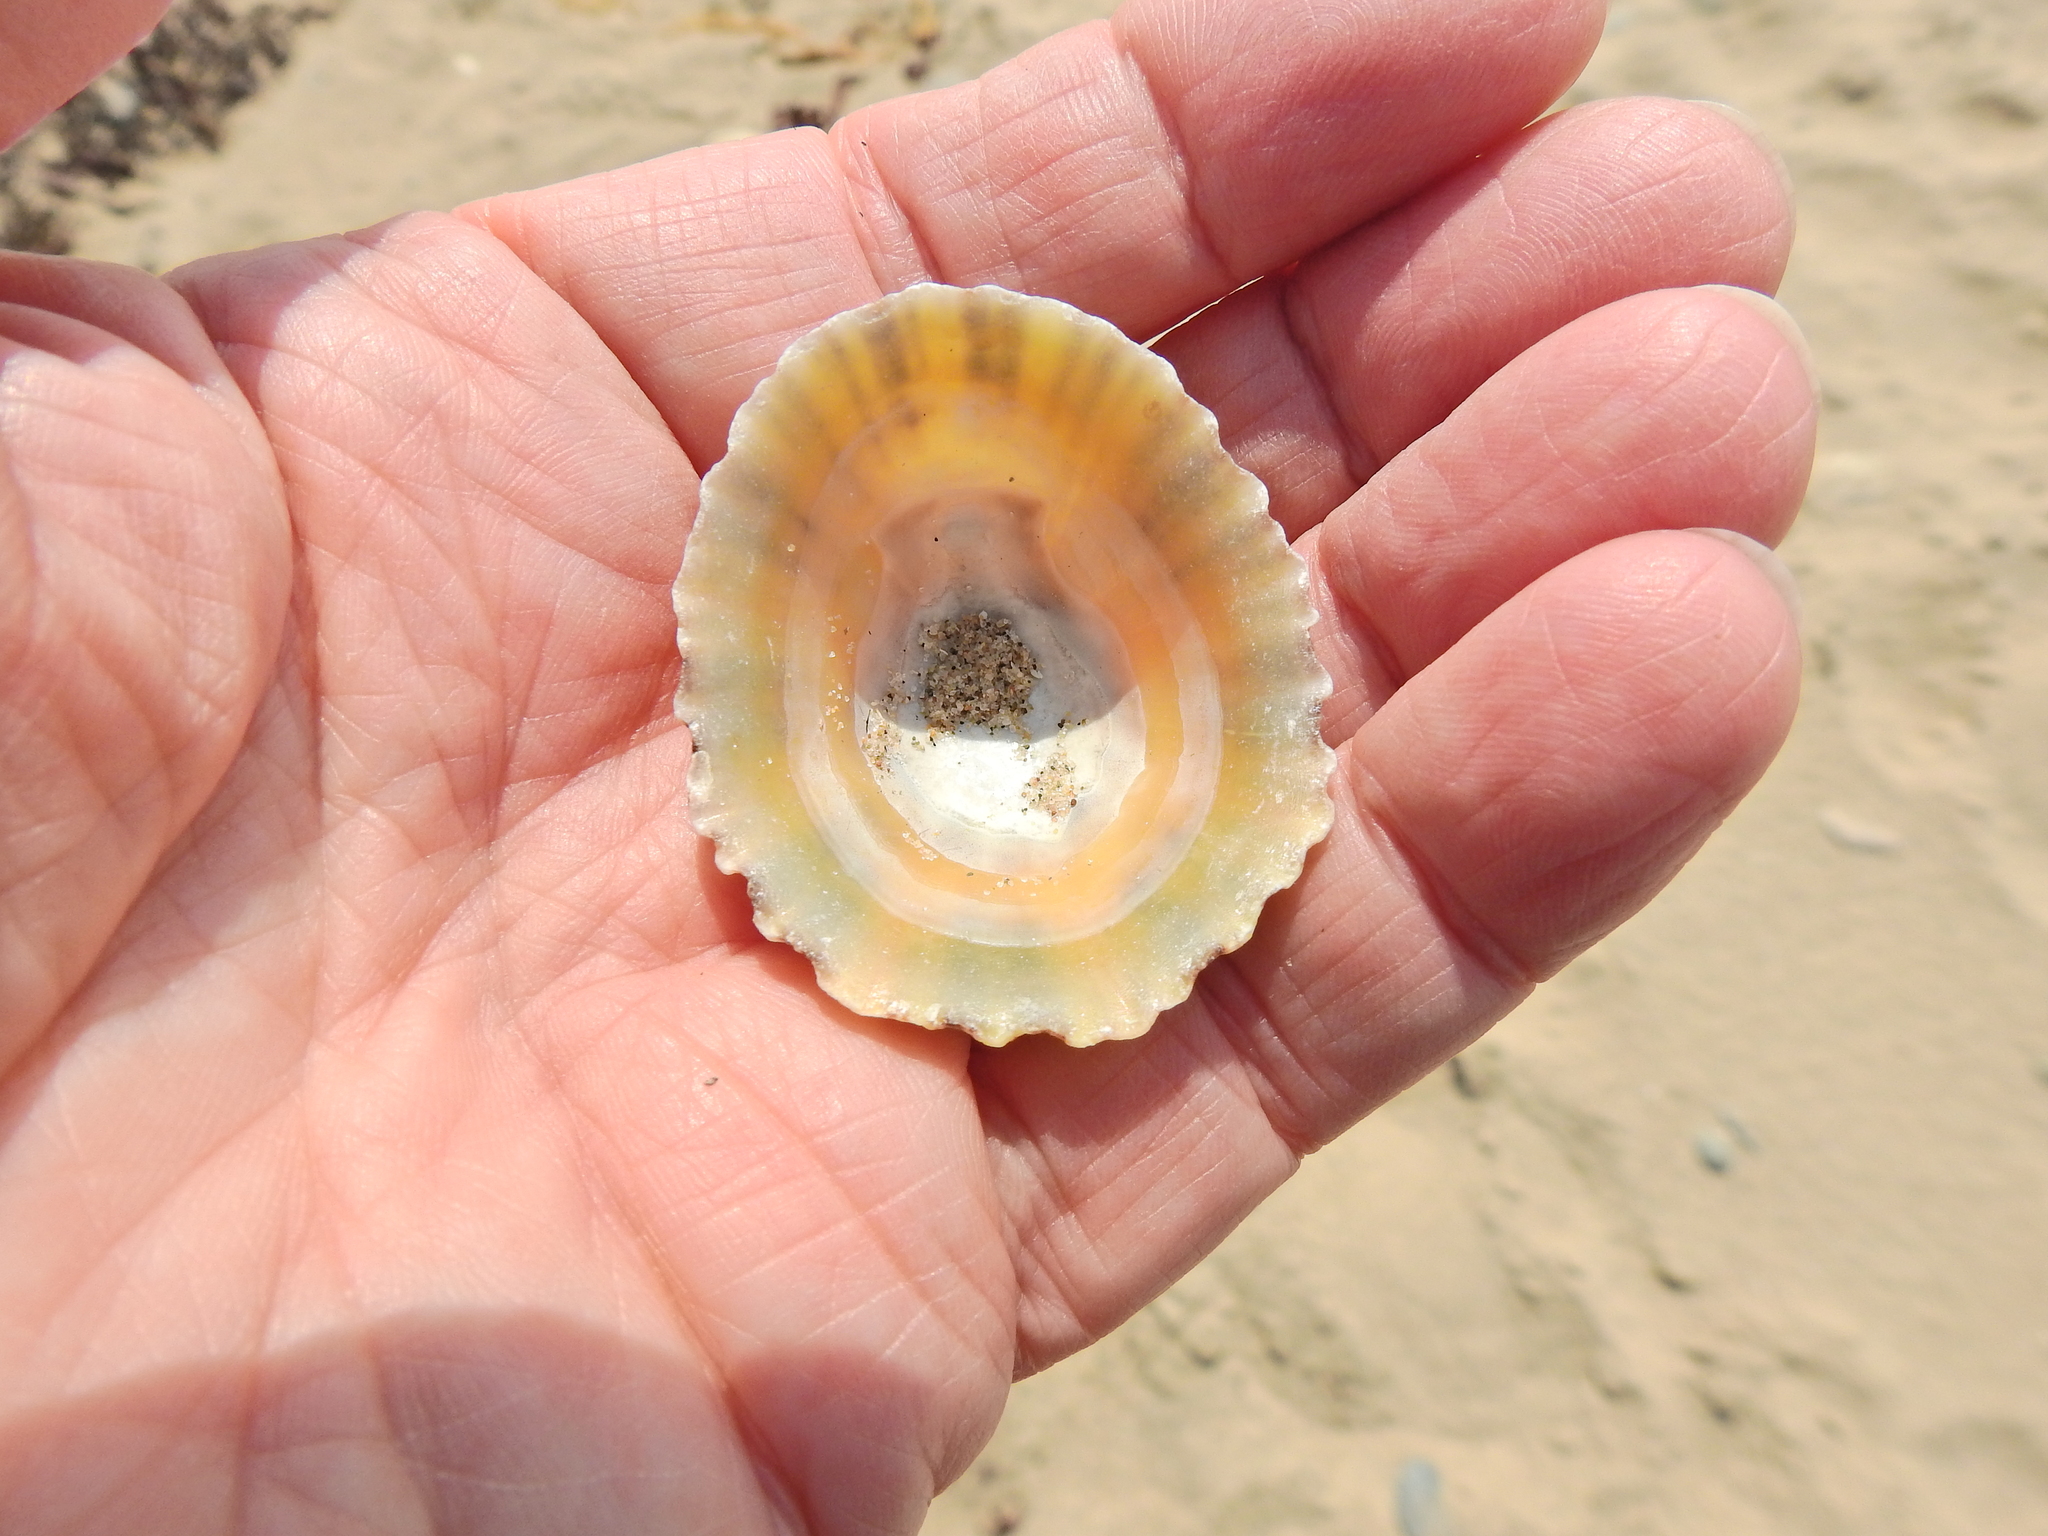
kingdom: Animalia
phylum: Mollusca
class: Gastropoda
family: Patellidae
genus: Patella
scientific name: Patella vulgata
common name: Common limpet
